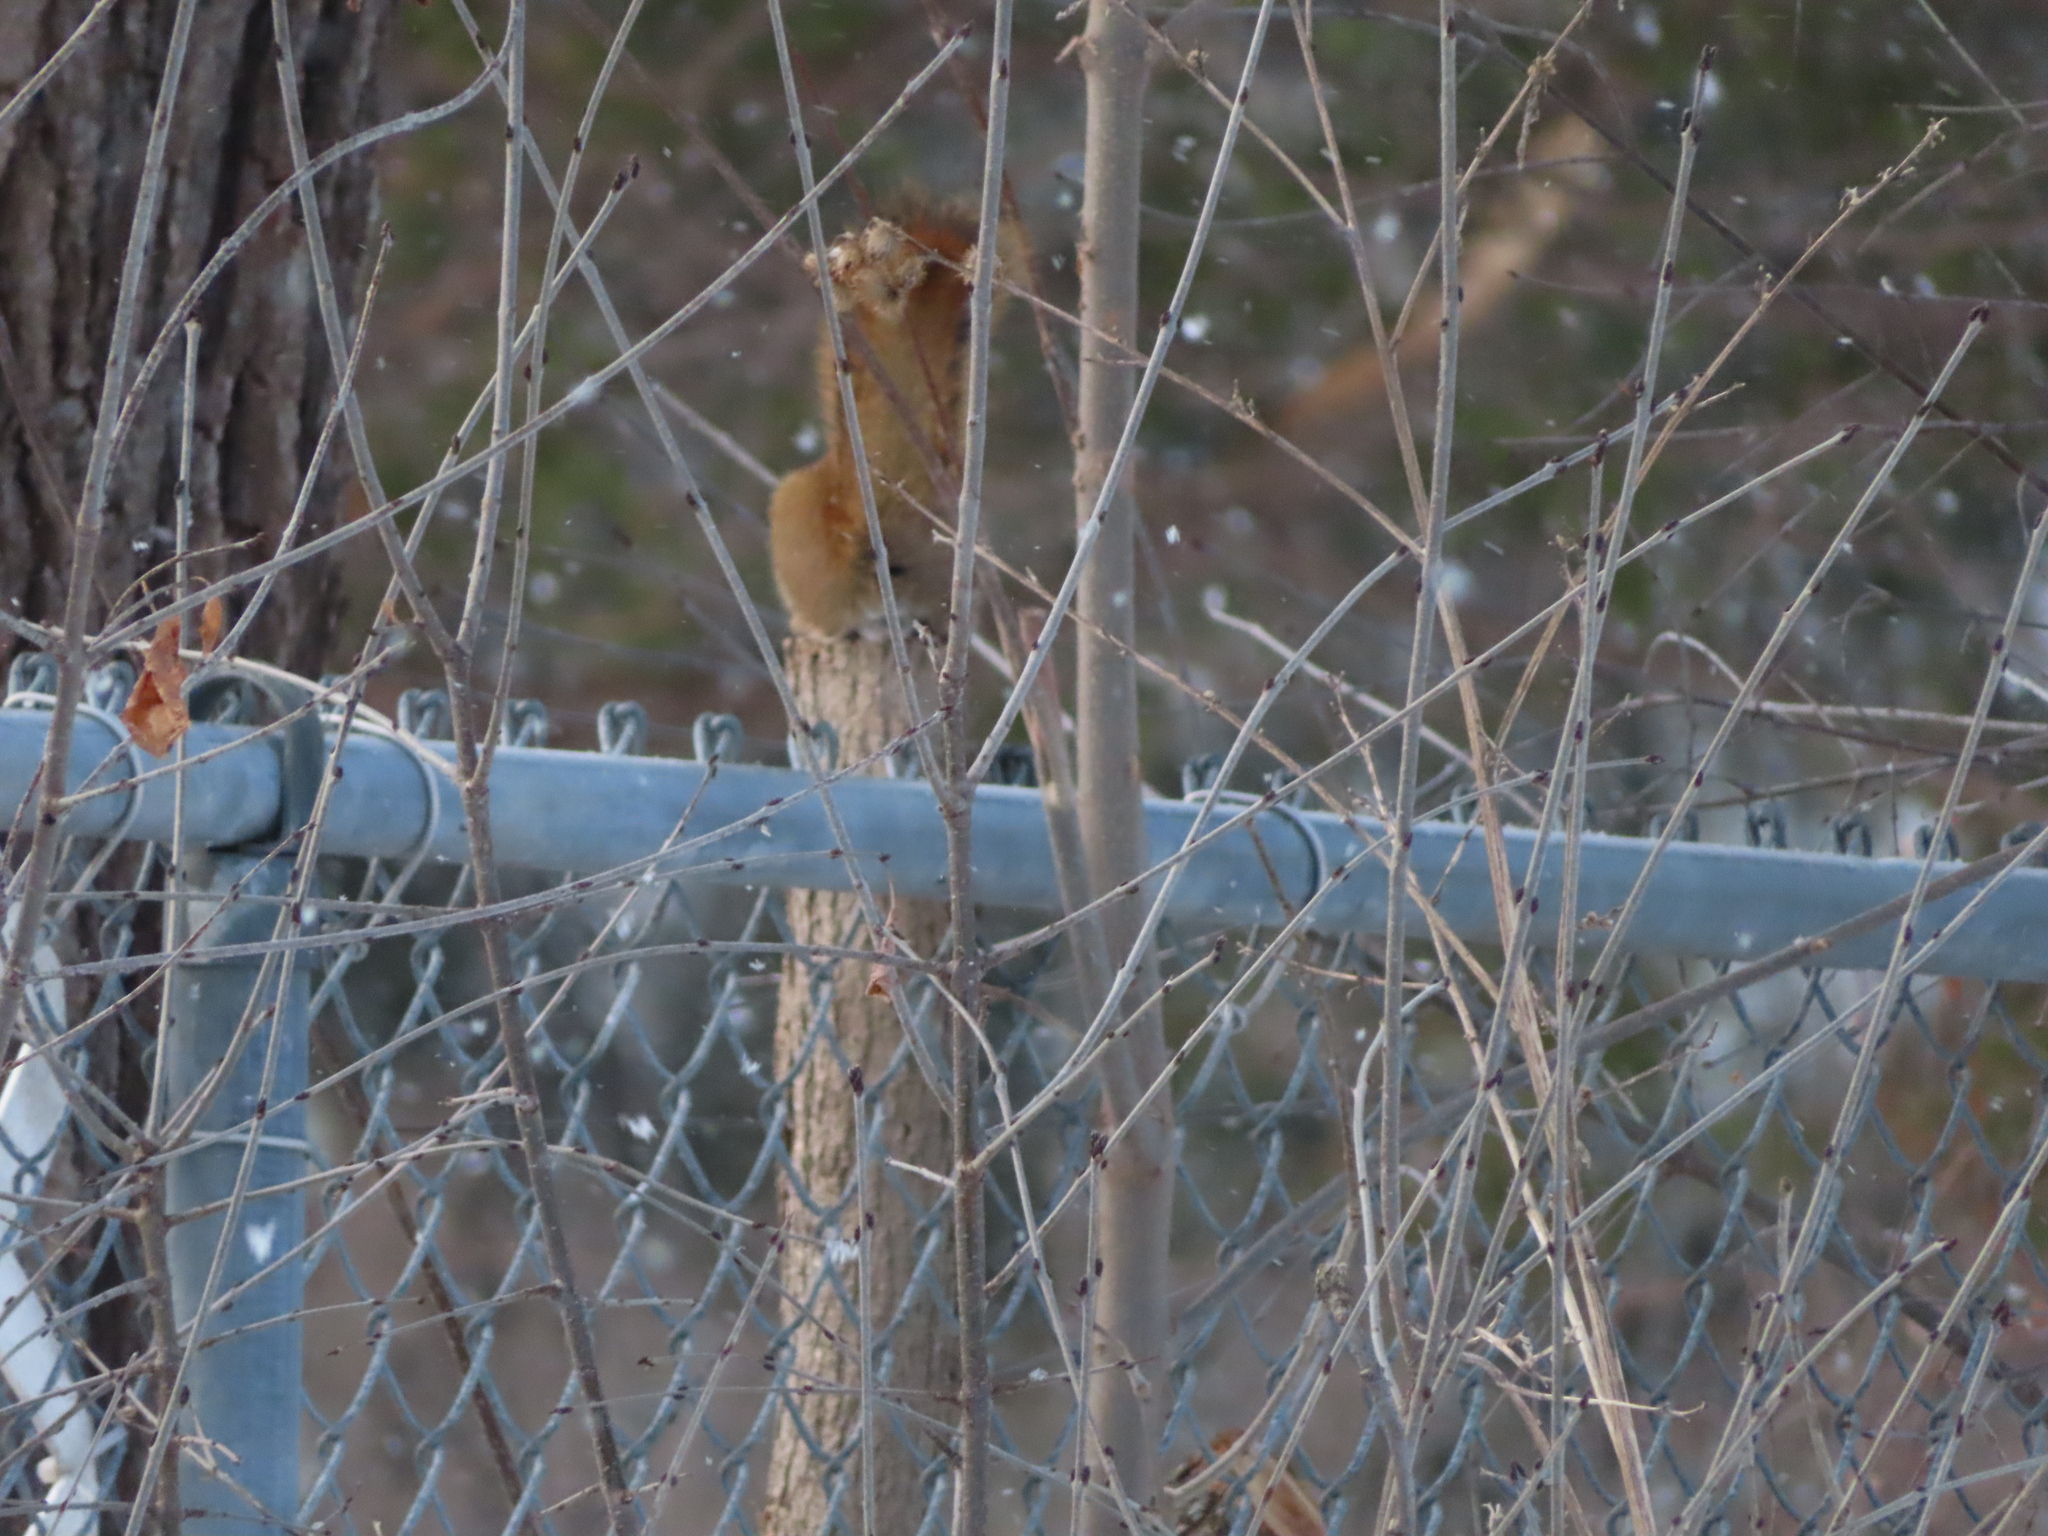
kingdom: Animalia
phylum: Chordata
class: Mammalia
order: Rodentia
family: Sciuridae
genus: Tamiasciurus
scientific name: Tamiasciurus hudsonicus
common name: Red squirrel
